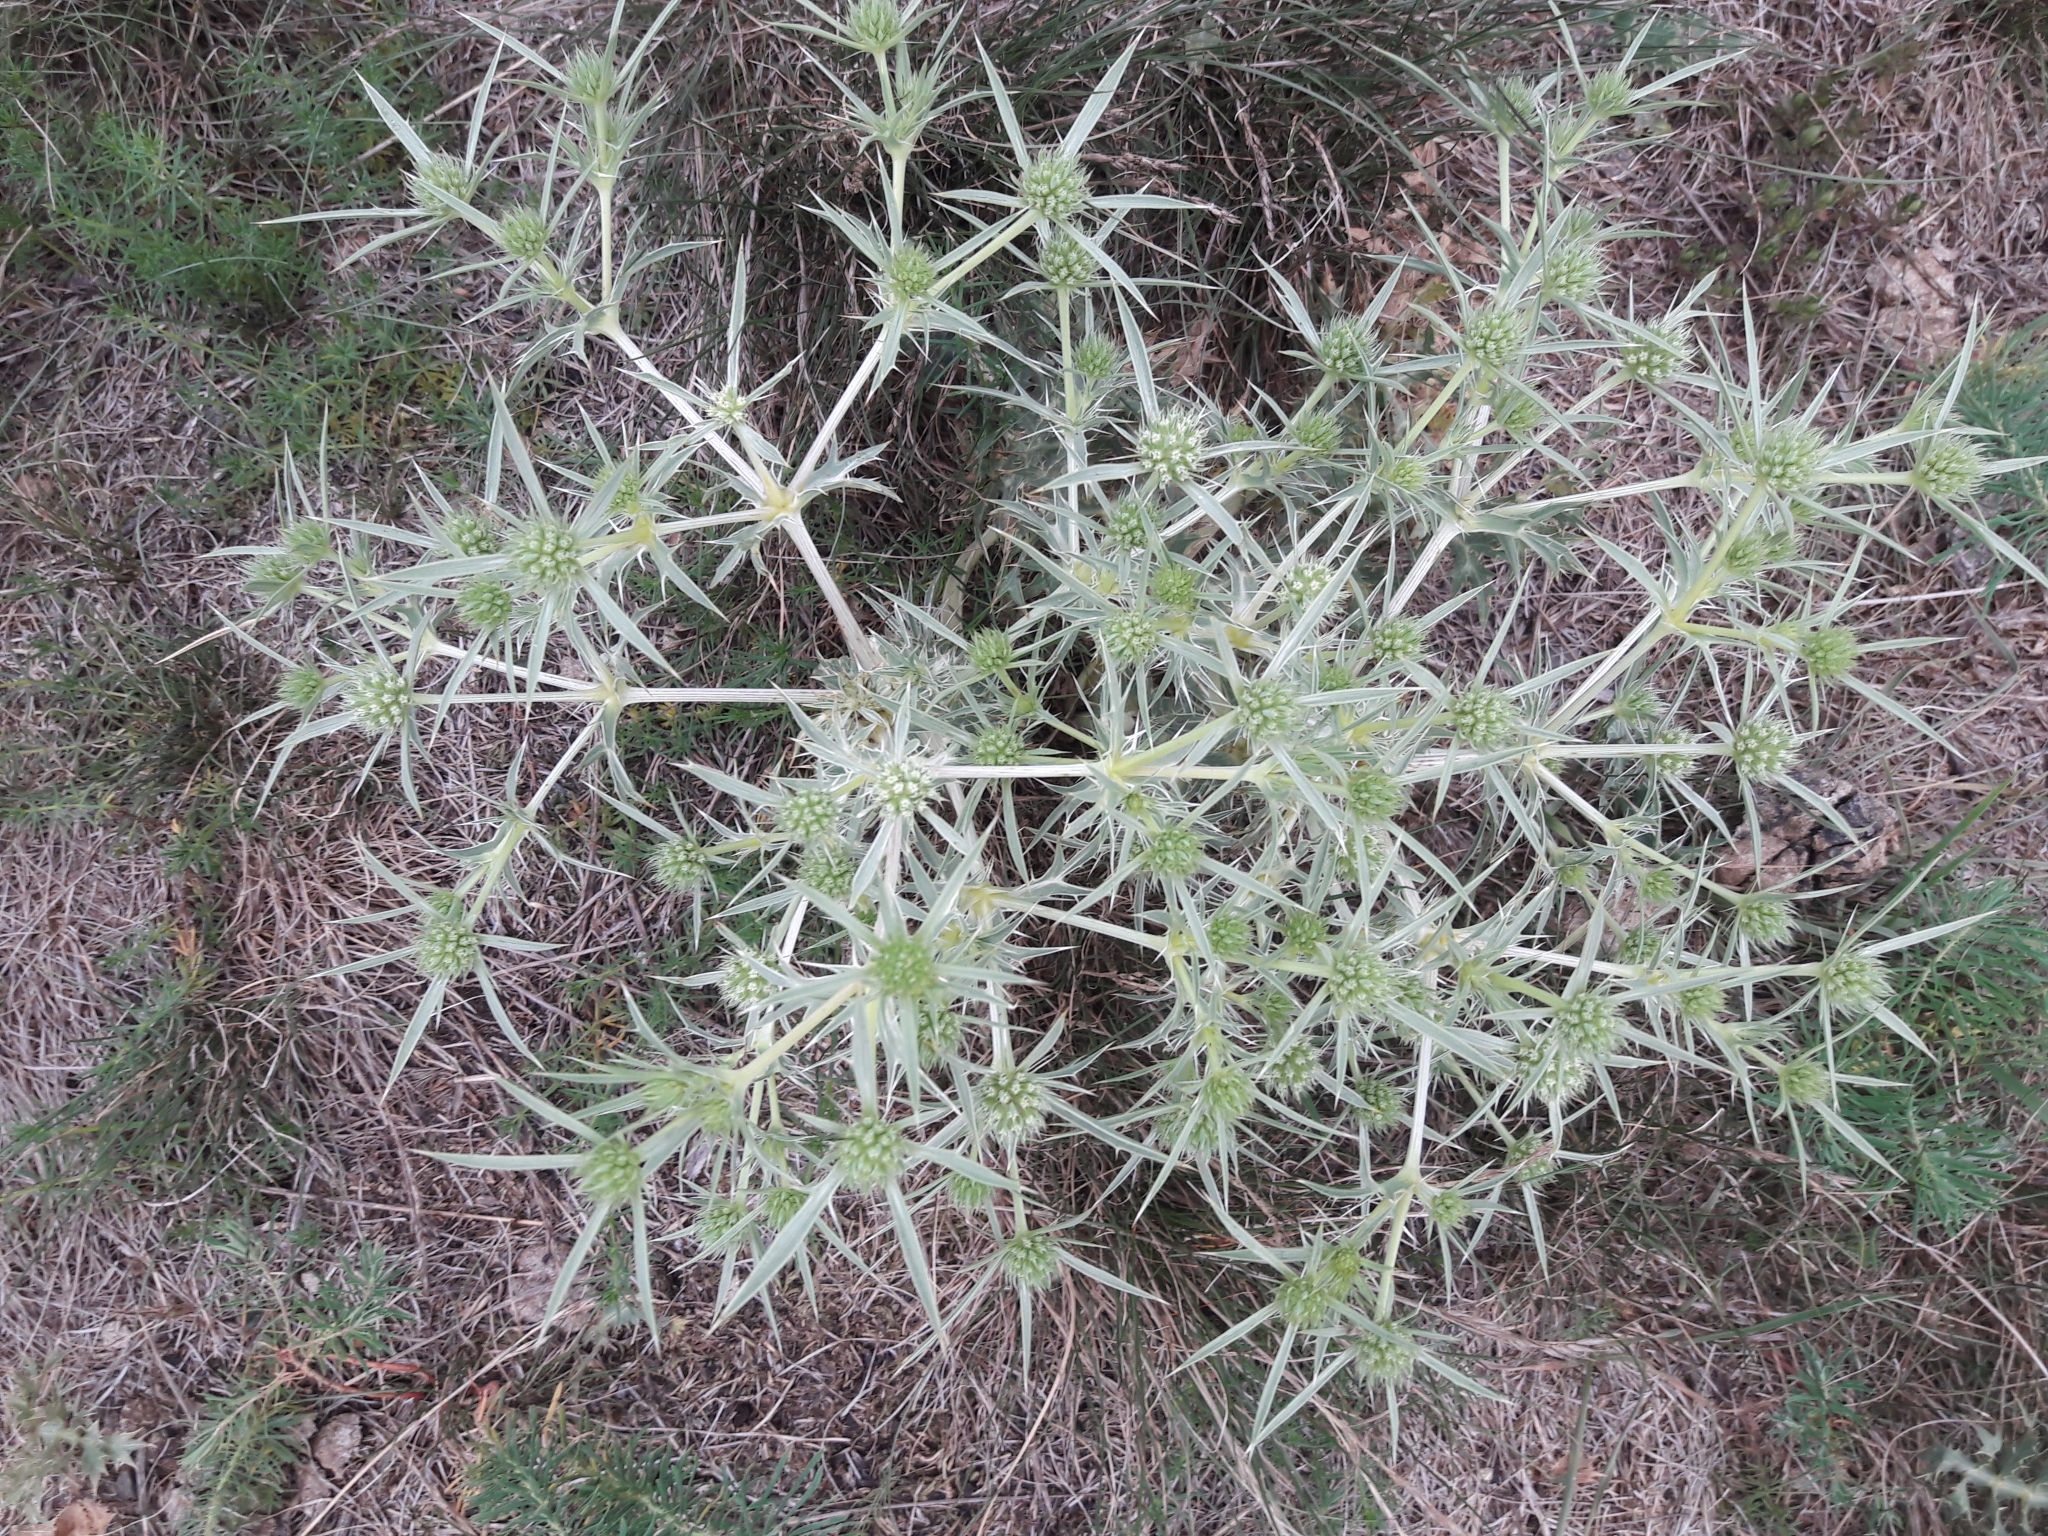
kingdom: Plantae
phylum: Tracheophyta
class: Magnoliopsida
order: Apiales
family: Apiaceae
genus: Eryngium
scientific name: Eryngium campestre
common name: Field eryngo
